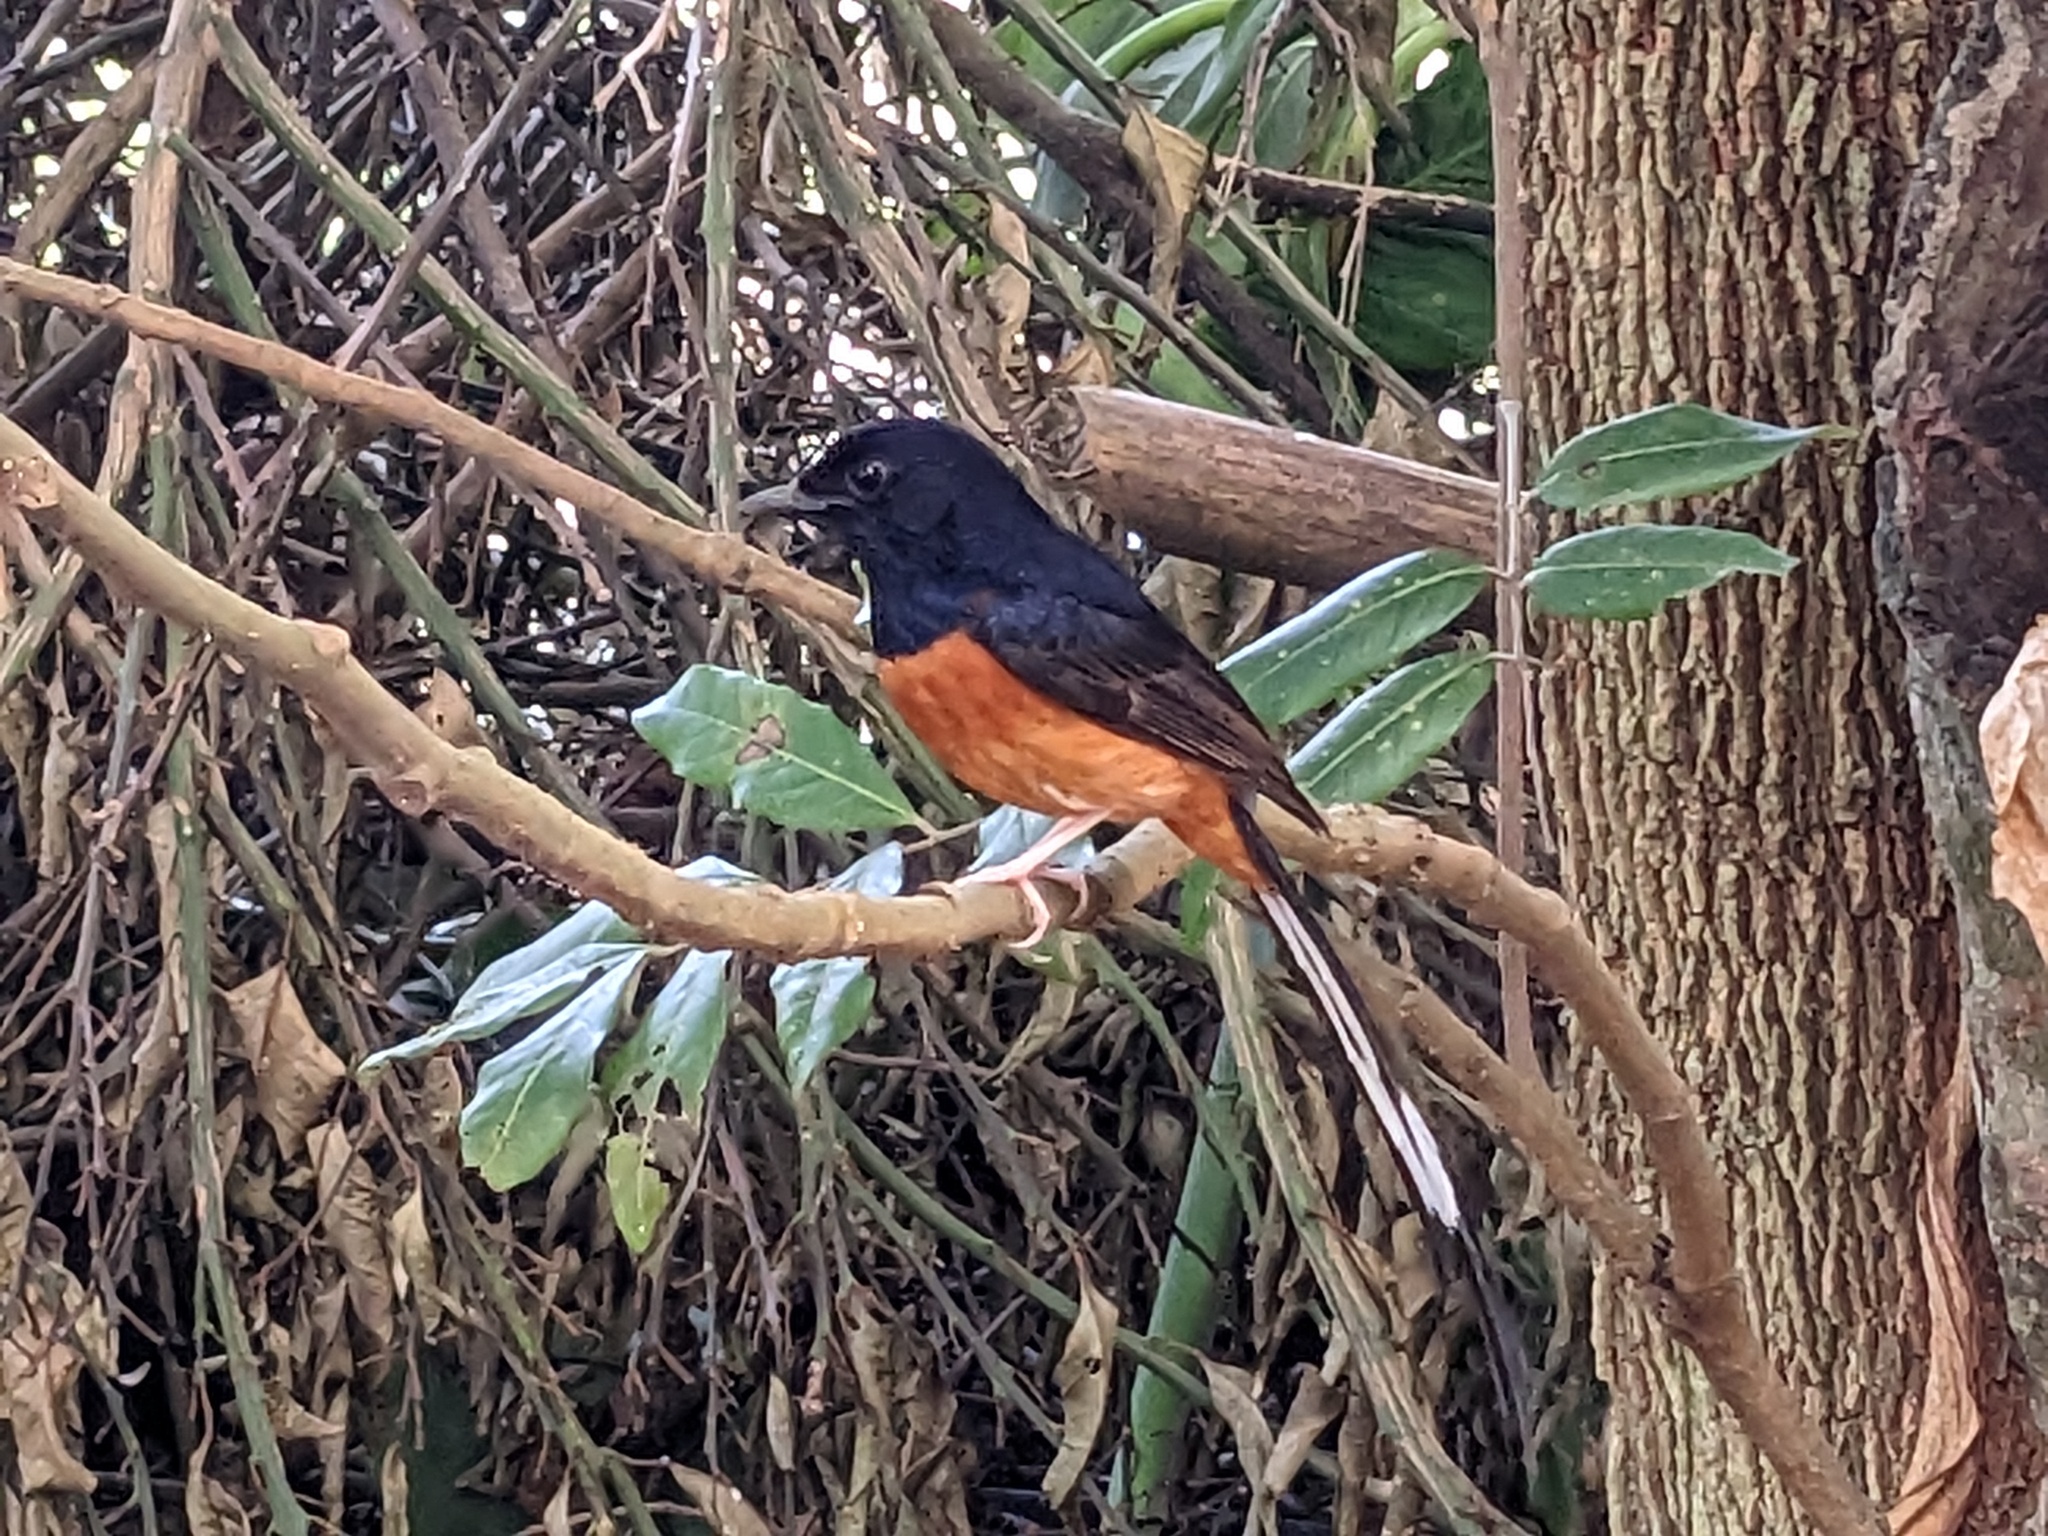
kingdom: Animalia
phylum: Chordata
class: Aves
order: Passeriformes
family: Muscicapidae
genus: Copsychus
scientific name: Copsychus malabaricus
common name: White-rumped shama
